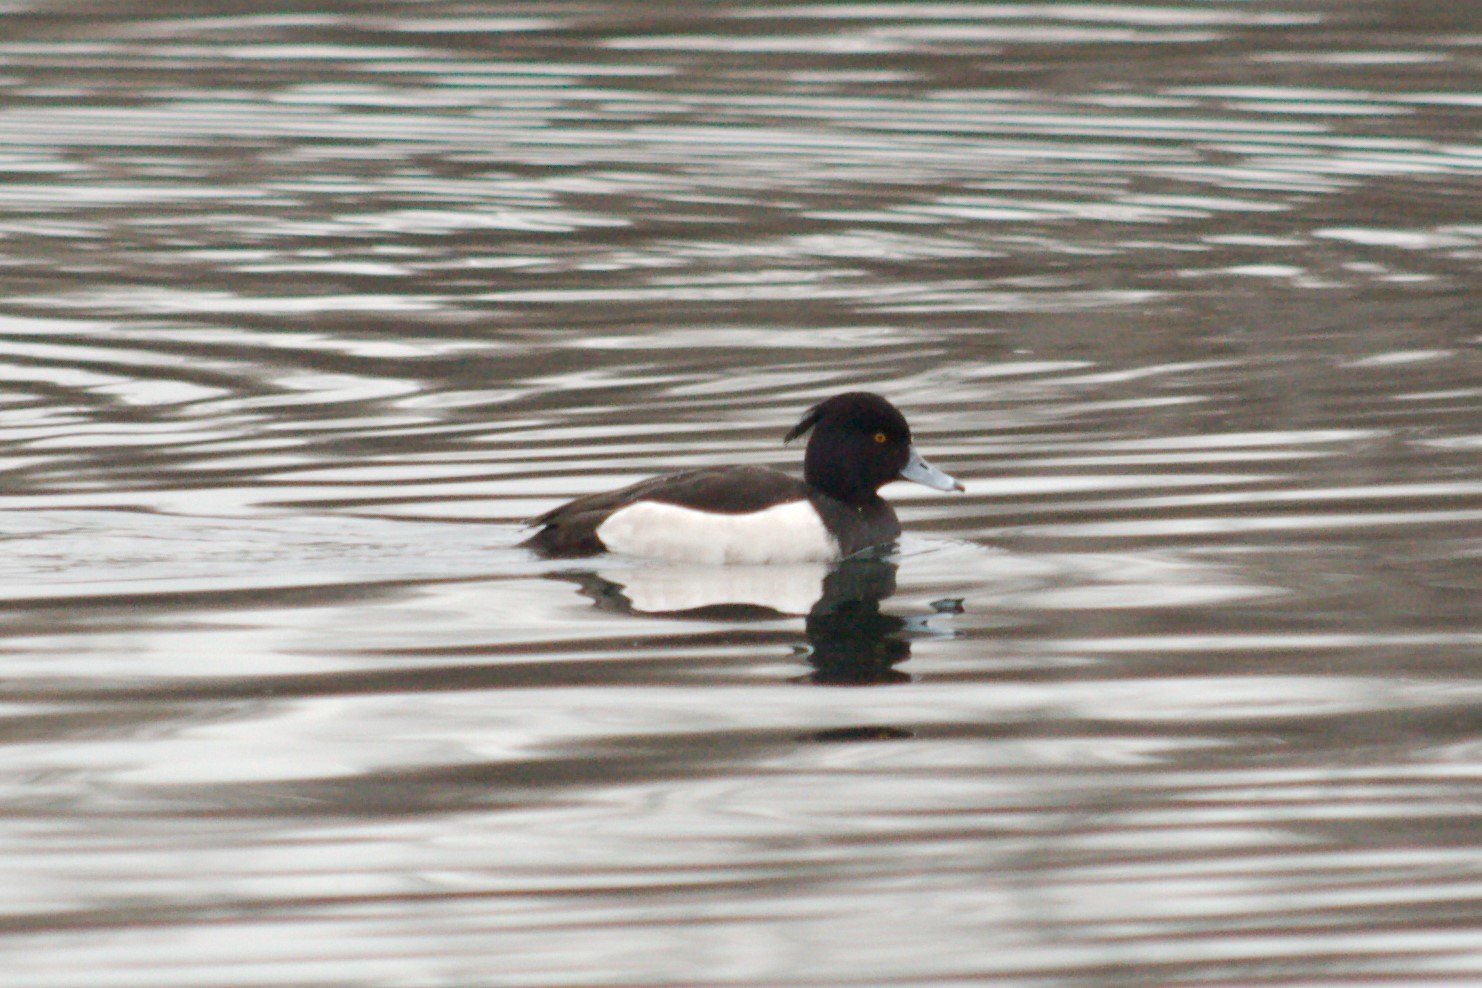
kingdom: Animalia
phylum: Chordata
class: Aves
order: Anseriformes
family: Anatidae
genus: Aythya
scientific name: Aythya fuligula
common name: Tufted duck
